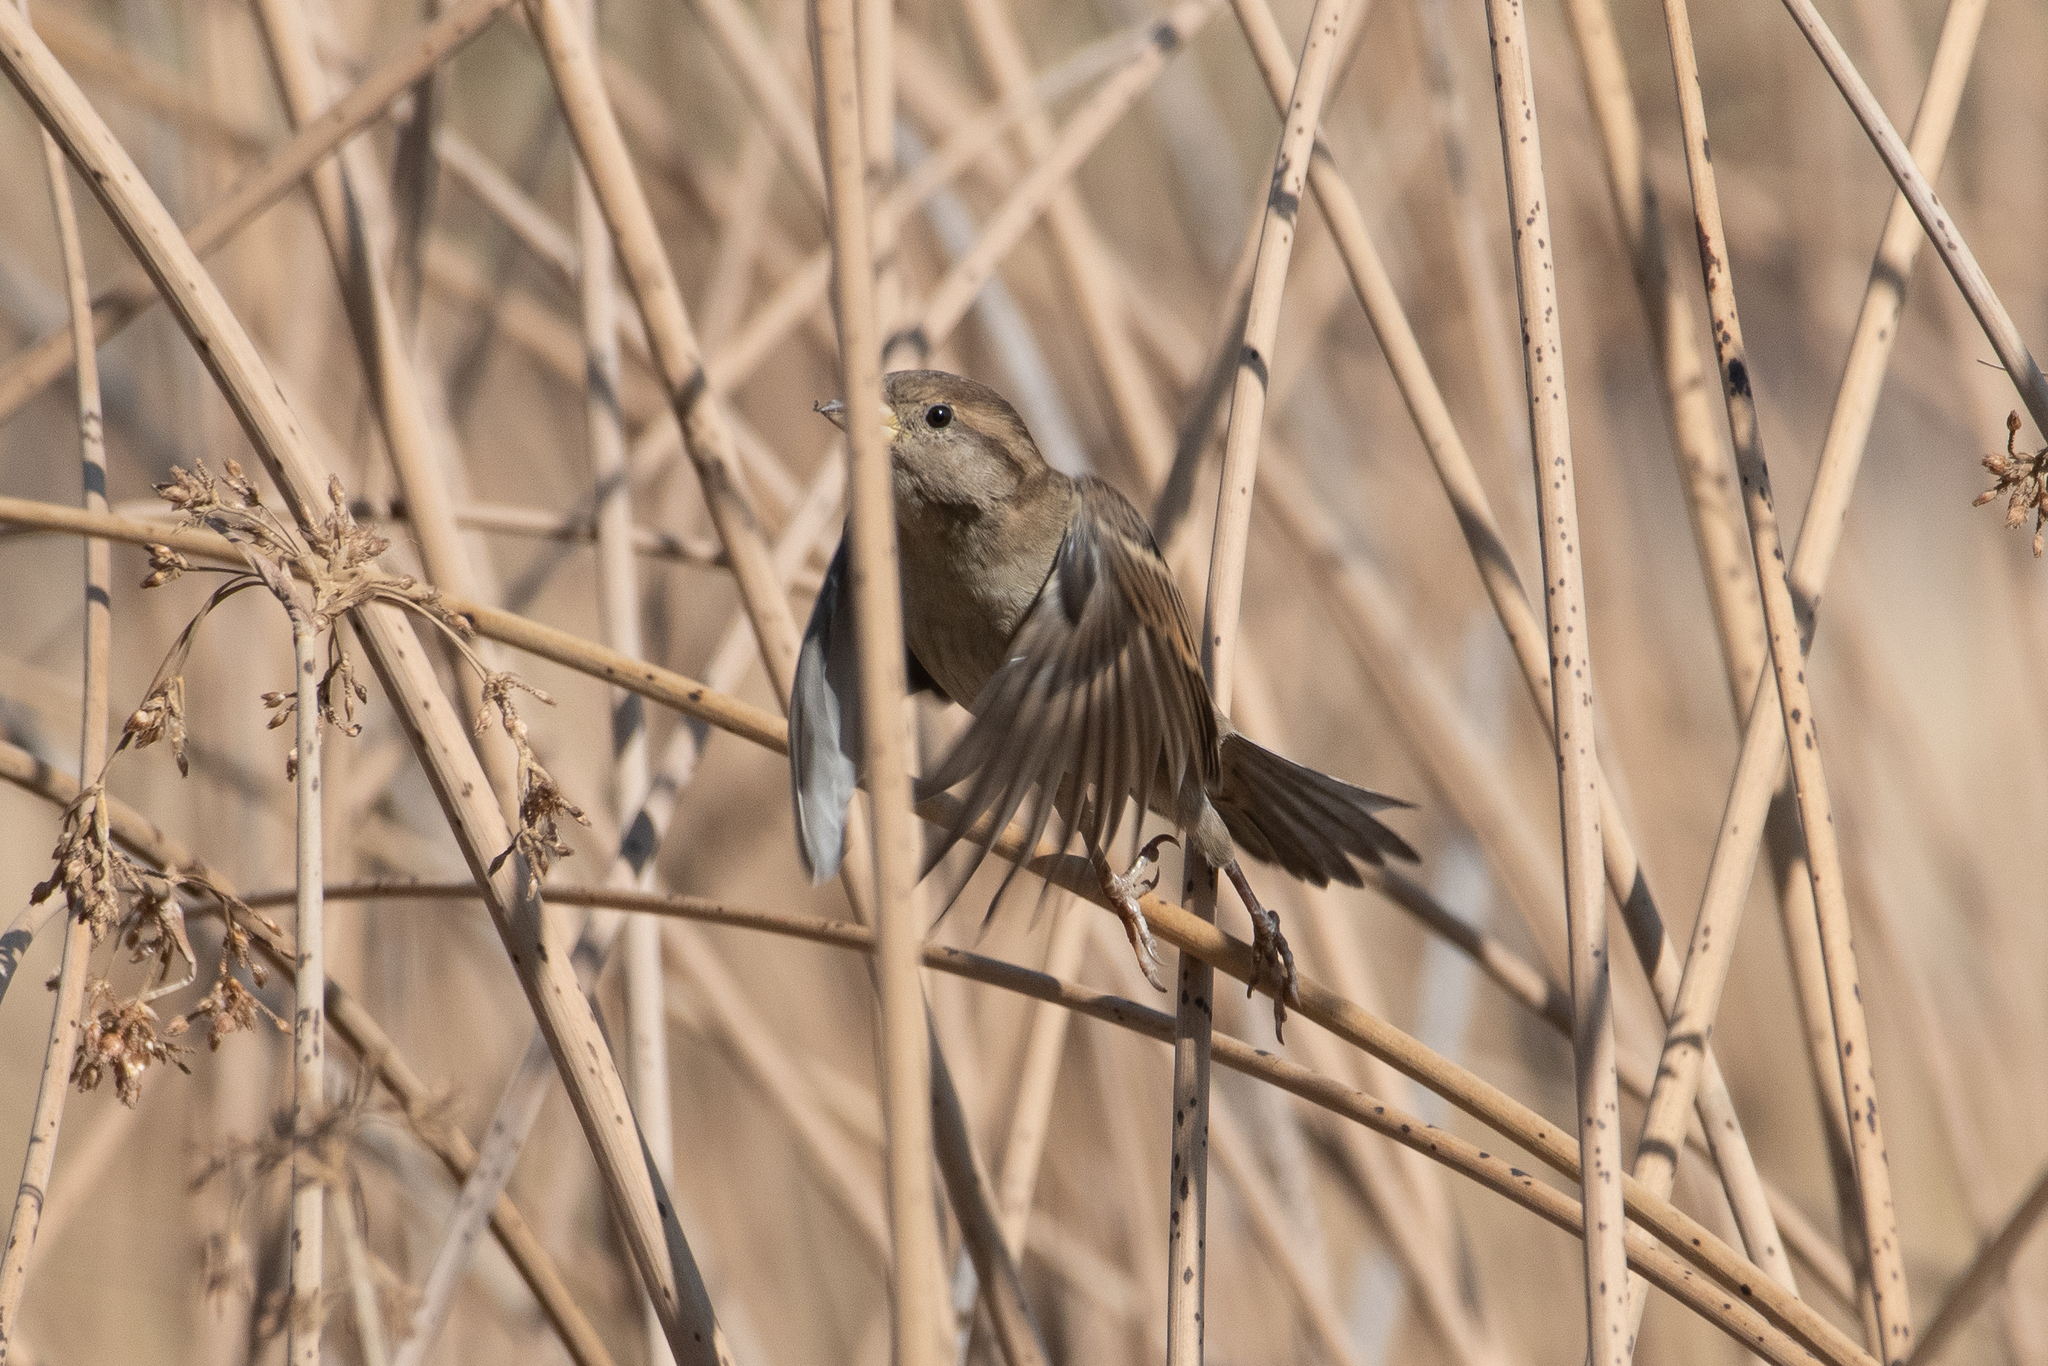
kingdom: Animalia
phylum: Chordata
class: Aves
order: Passeriformes
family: Passeridae
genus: Passer
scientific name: Passer domesticus
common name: House sparrow
